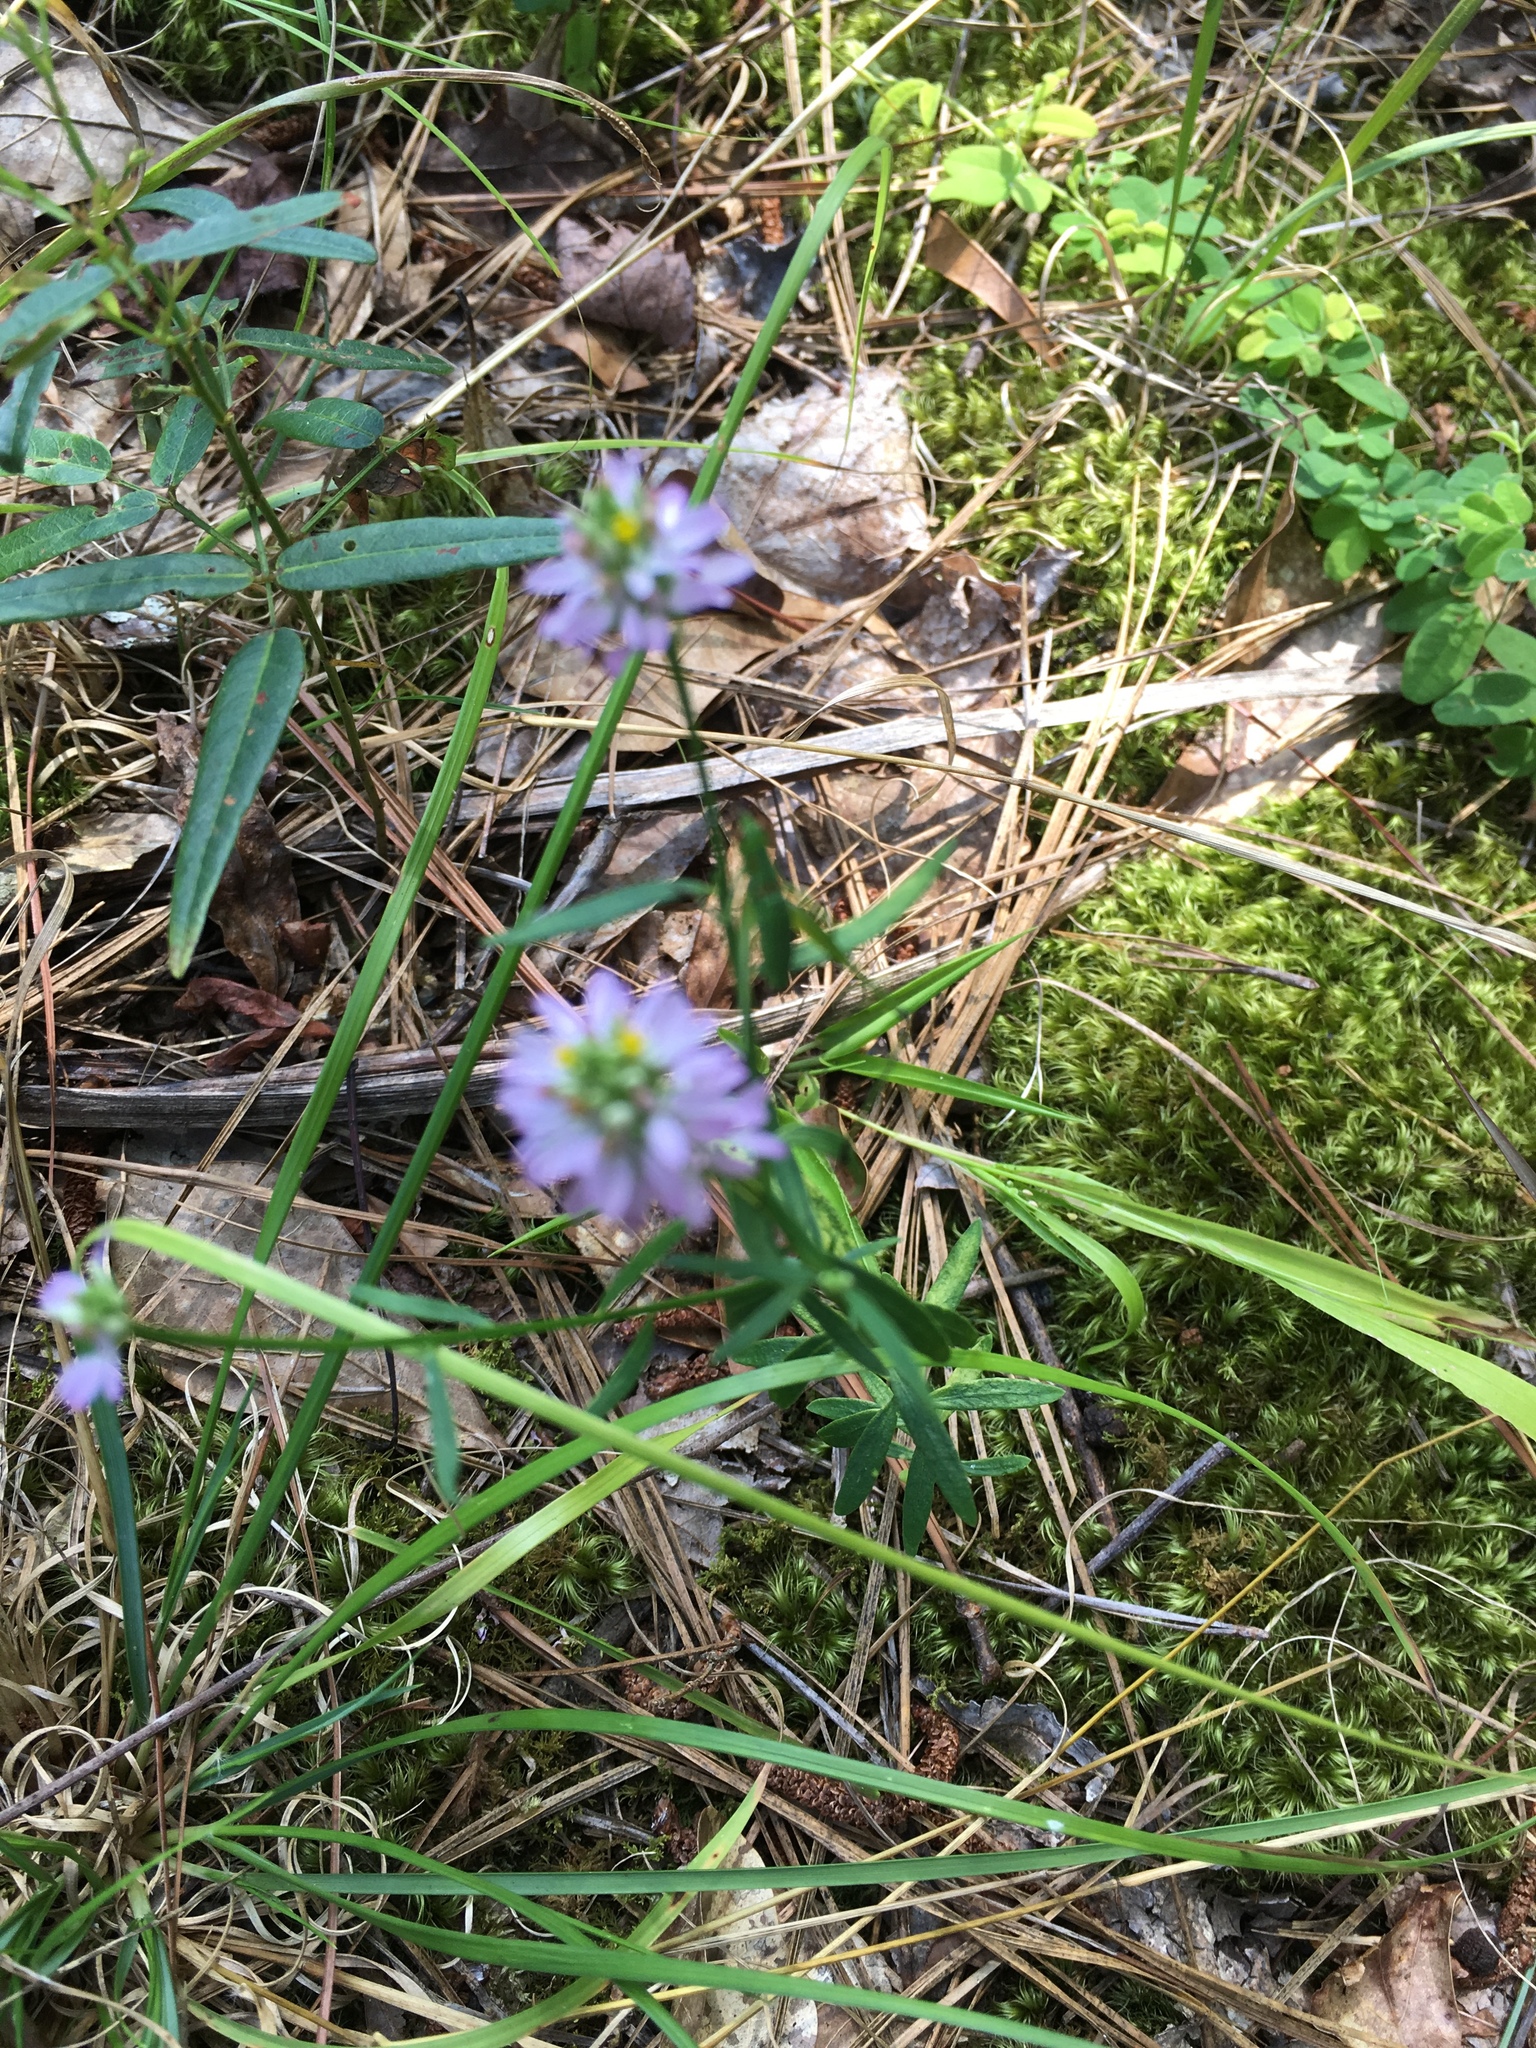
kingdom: Plantae
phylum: Tracheophyta
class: Magnoliopsida
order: Fabales
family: Polygalaceae
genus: Polygala
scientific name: Polygala curtissii
